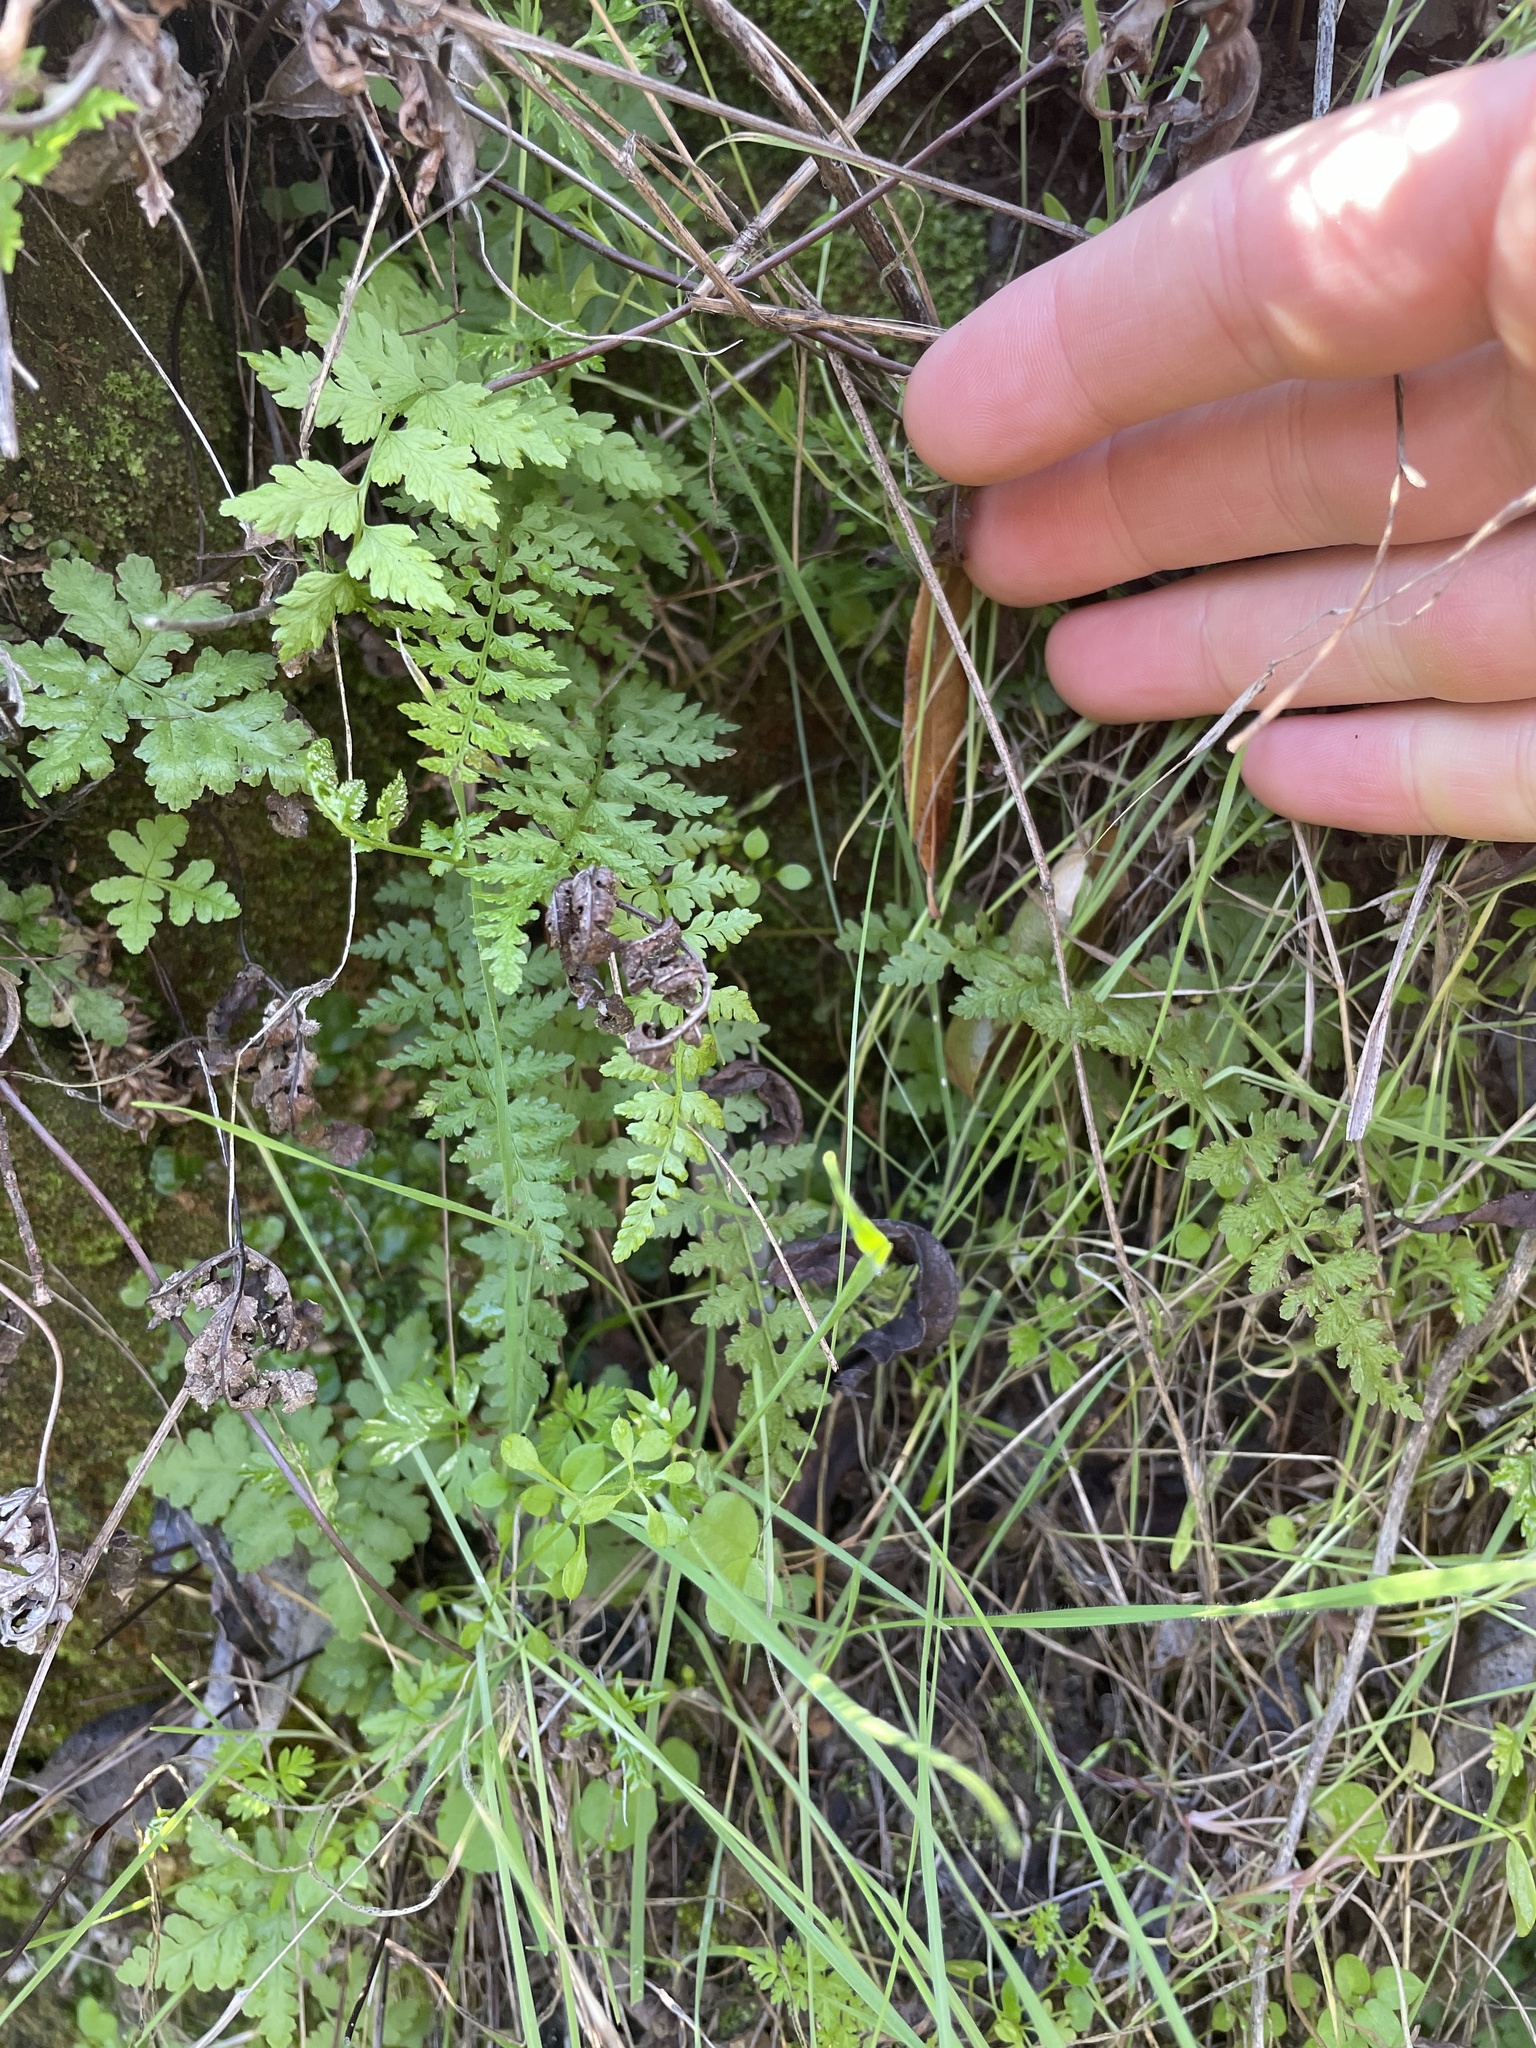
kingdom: Plantae
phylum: Tracheophyta
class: Polypodiopsida
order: Polypodiales
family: Cystopteridaceae
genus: Cystopteris
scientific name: Cystopteris fragilis
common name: Brittle bladder fern
